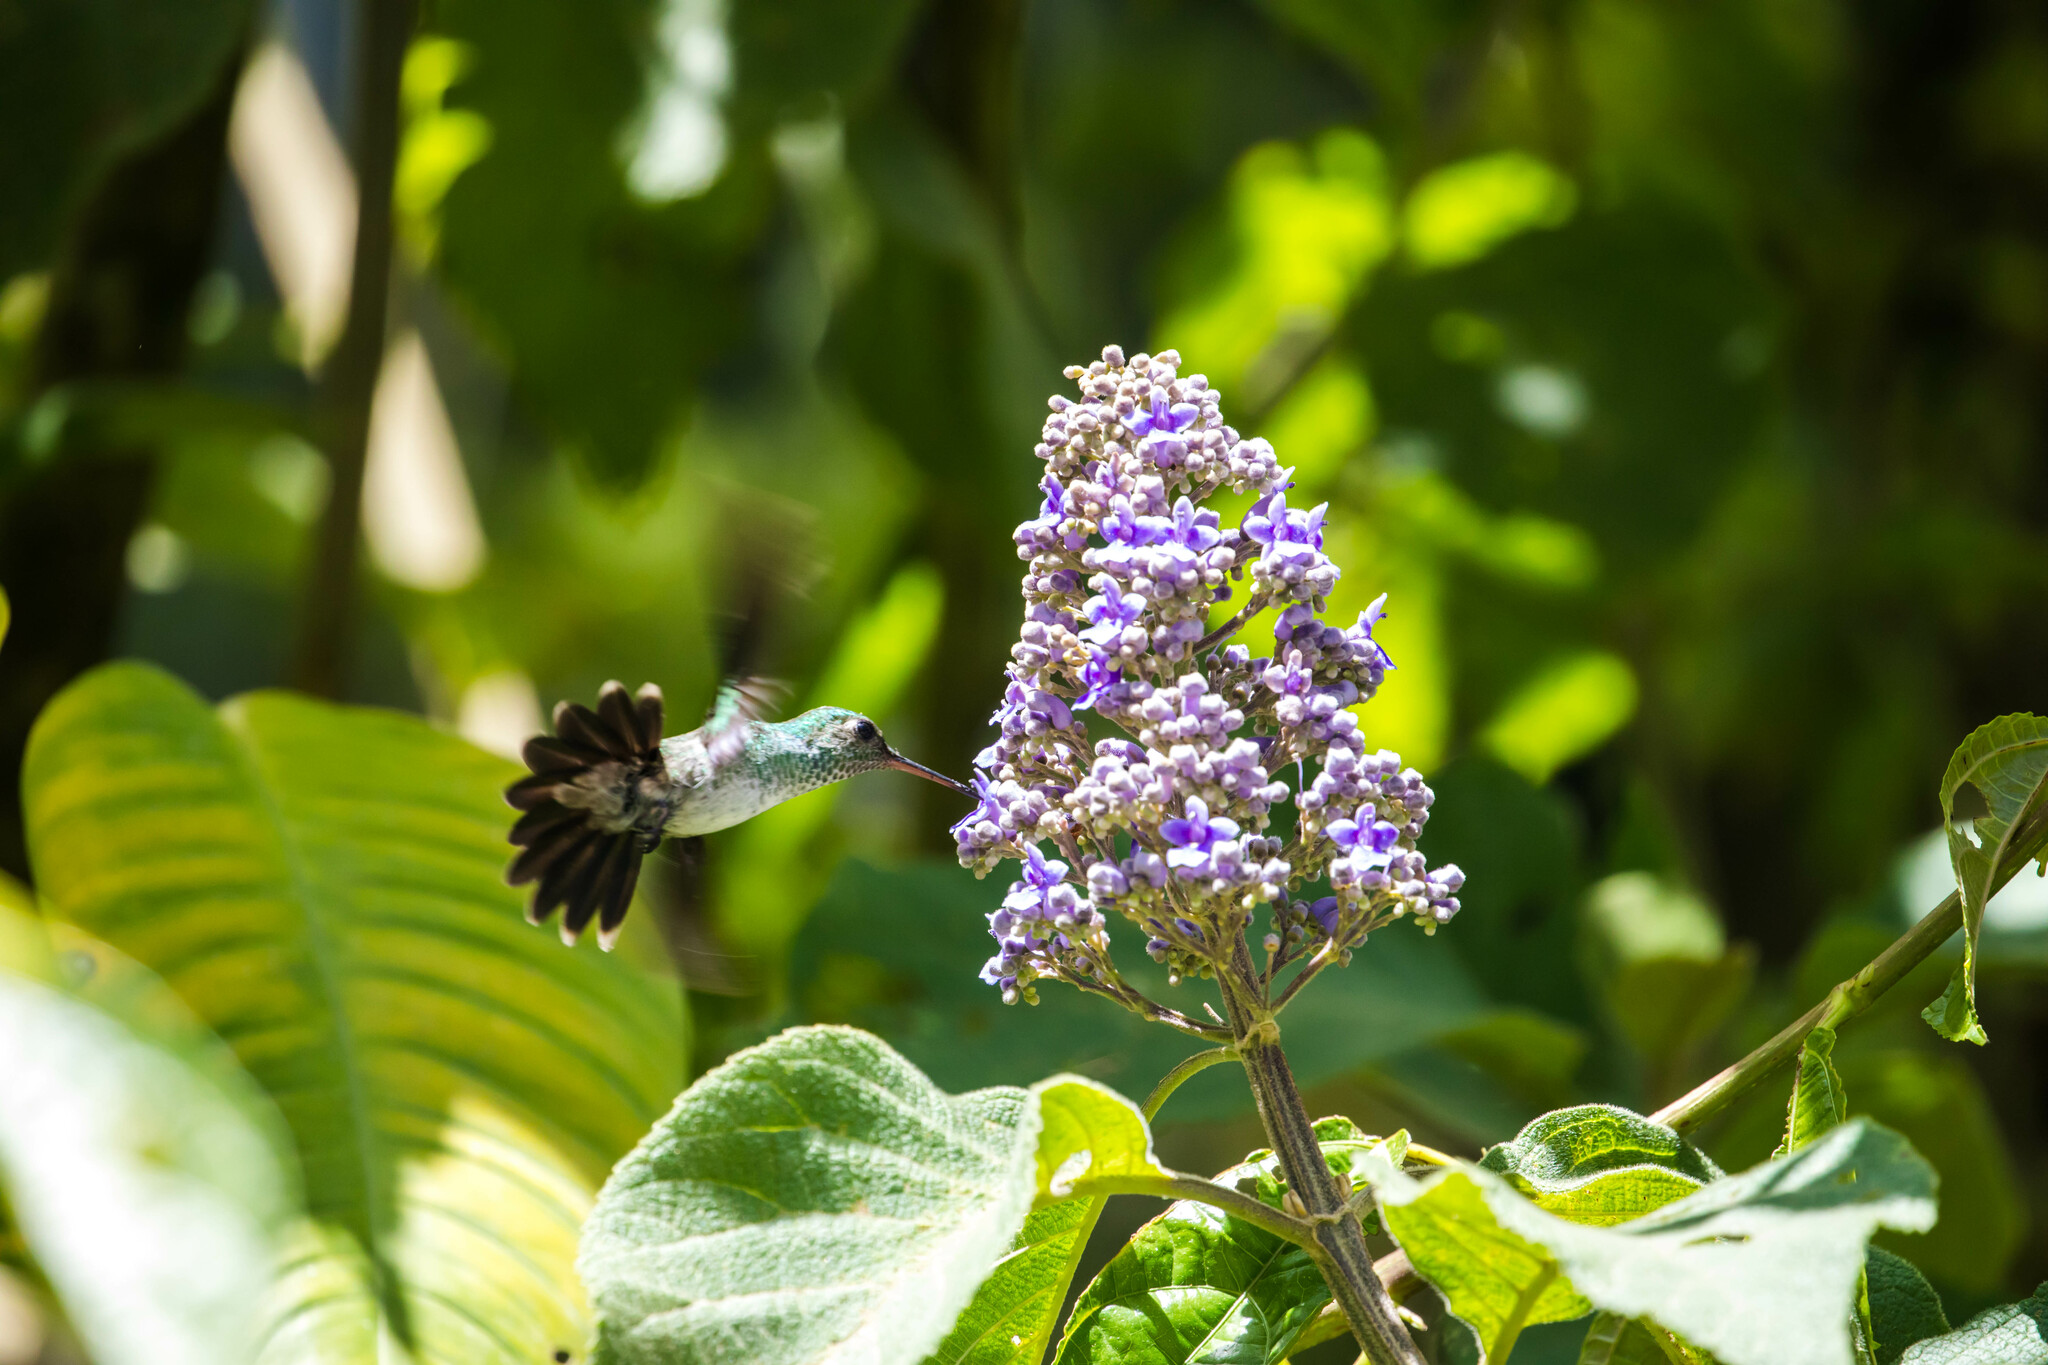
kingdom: Animalia
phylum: Chordata
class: Aves
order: Apodiformes
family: Trochilidae
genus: Polyerata
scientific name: Polyerata amabilis
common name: Blue-chested hummingbird
